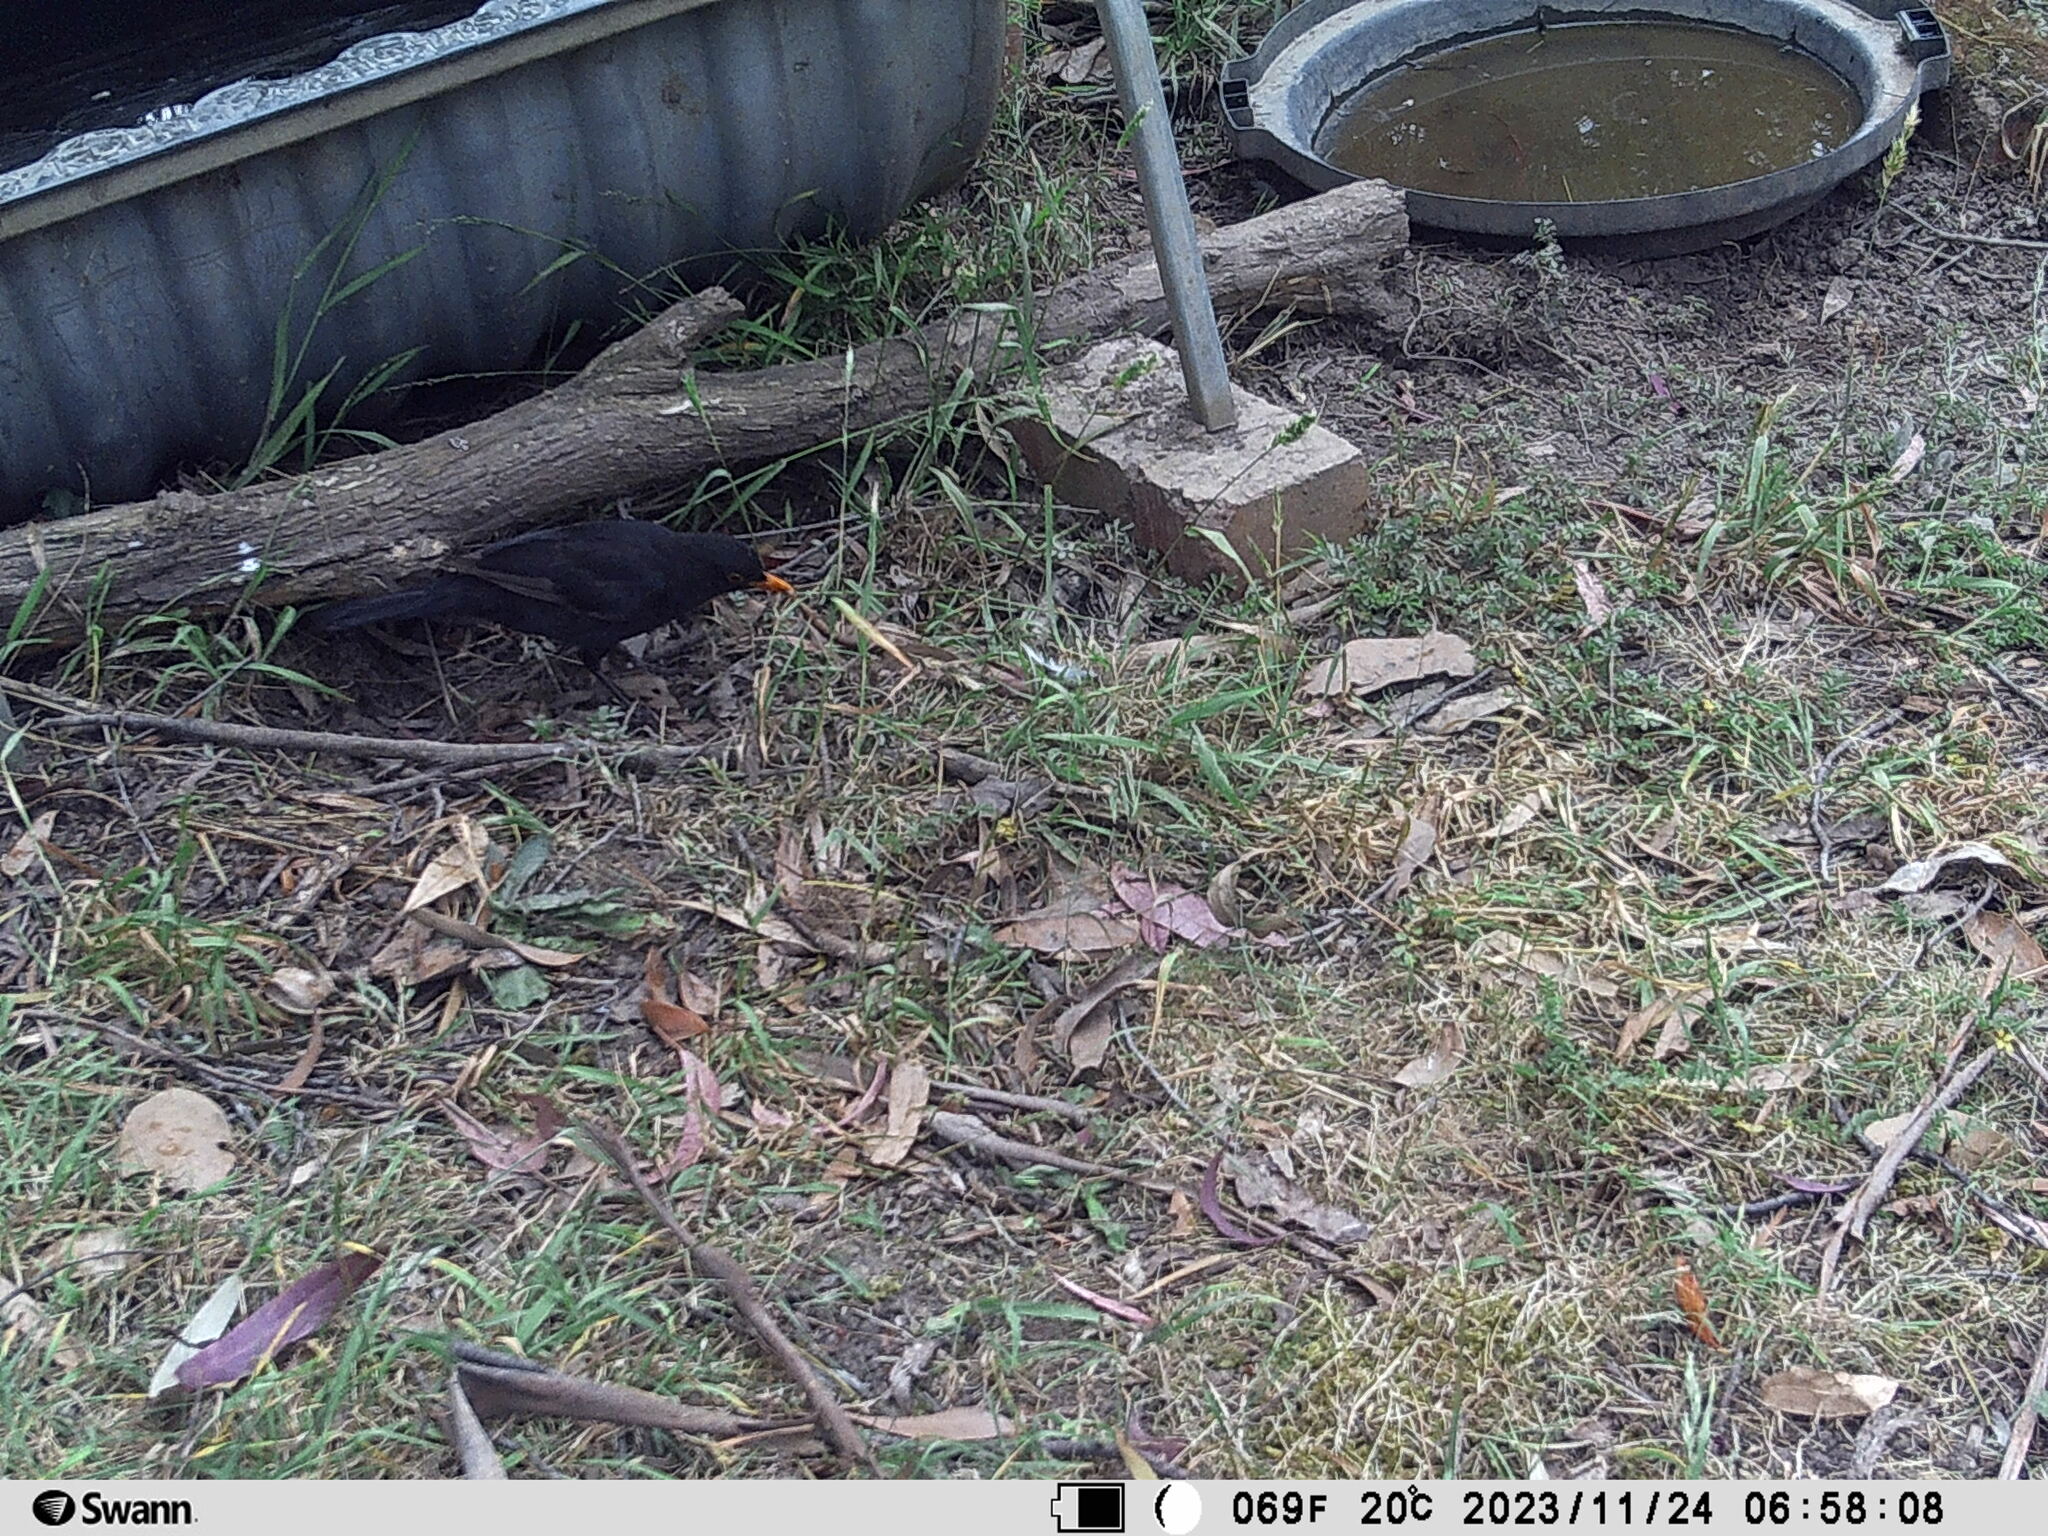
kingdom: Animalia
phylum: Chordata
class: Aves
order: Passeriformes
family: Turdidae
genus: Turdus
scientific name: Turdus merula
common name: Common blackbird
